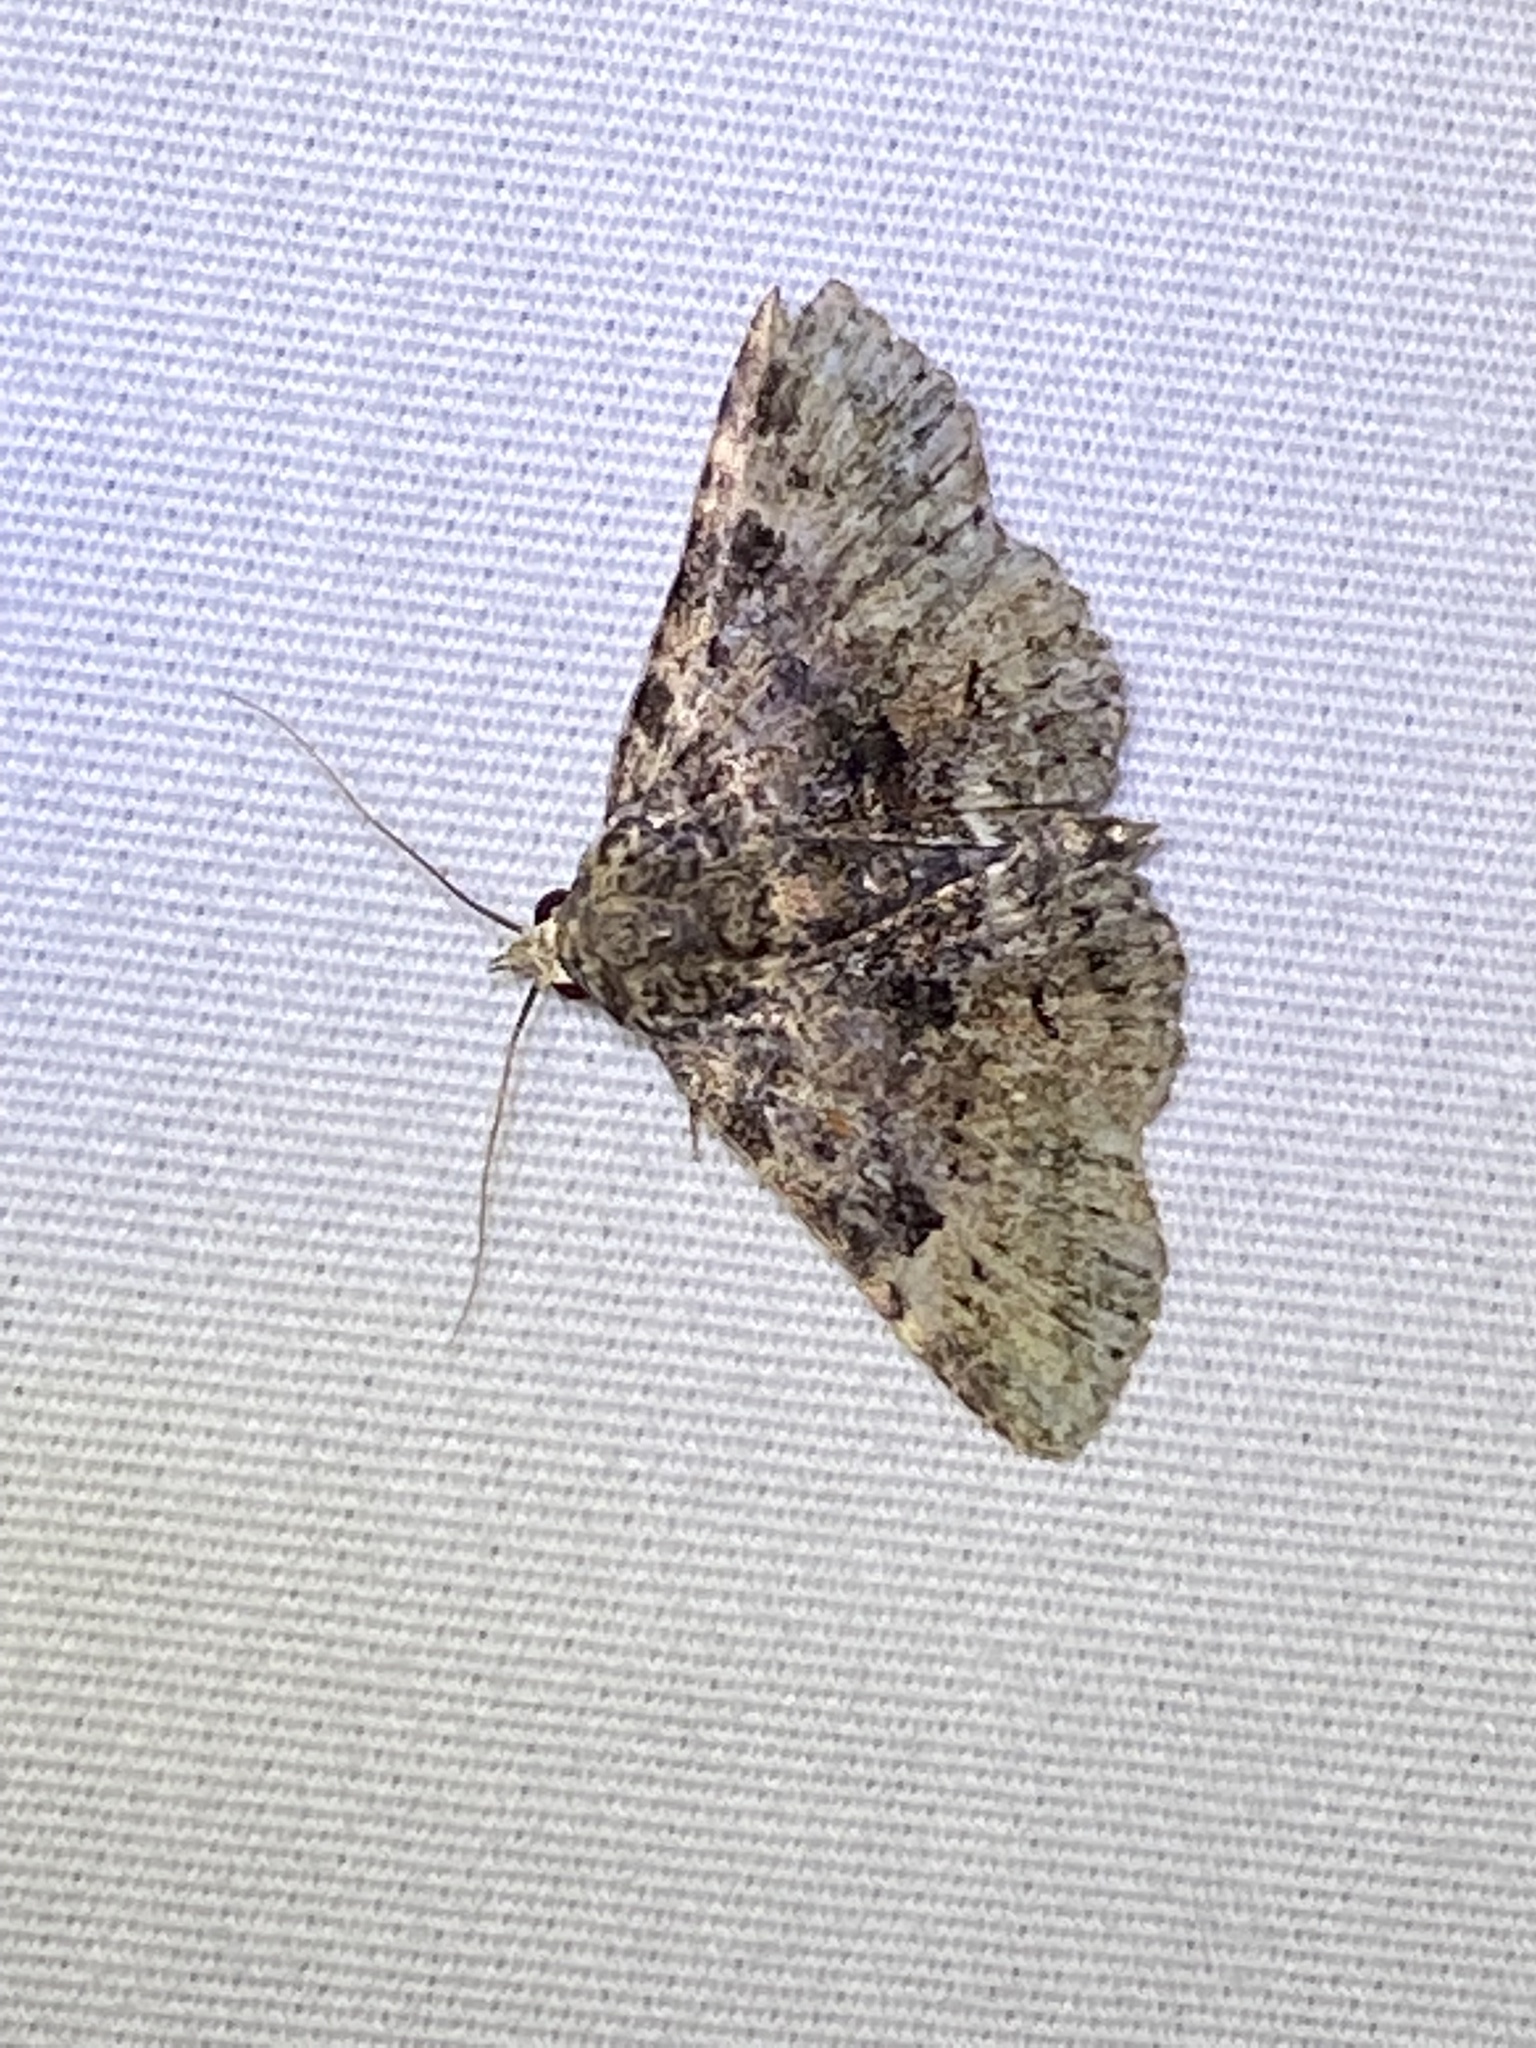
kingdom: Animalia
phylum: Arthropoda
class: Insecta
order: Lepidoptera
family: Erebidae
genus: Metalectra
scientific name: Metalectra discalis
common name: Common fungus moth
